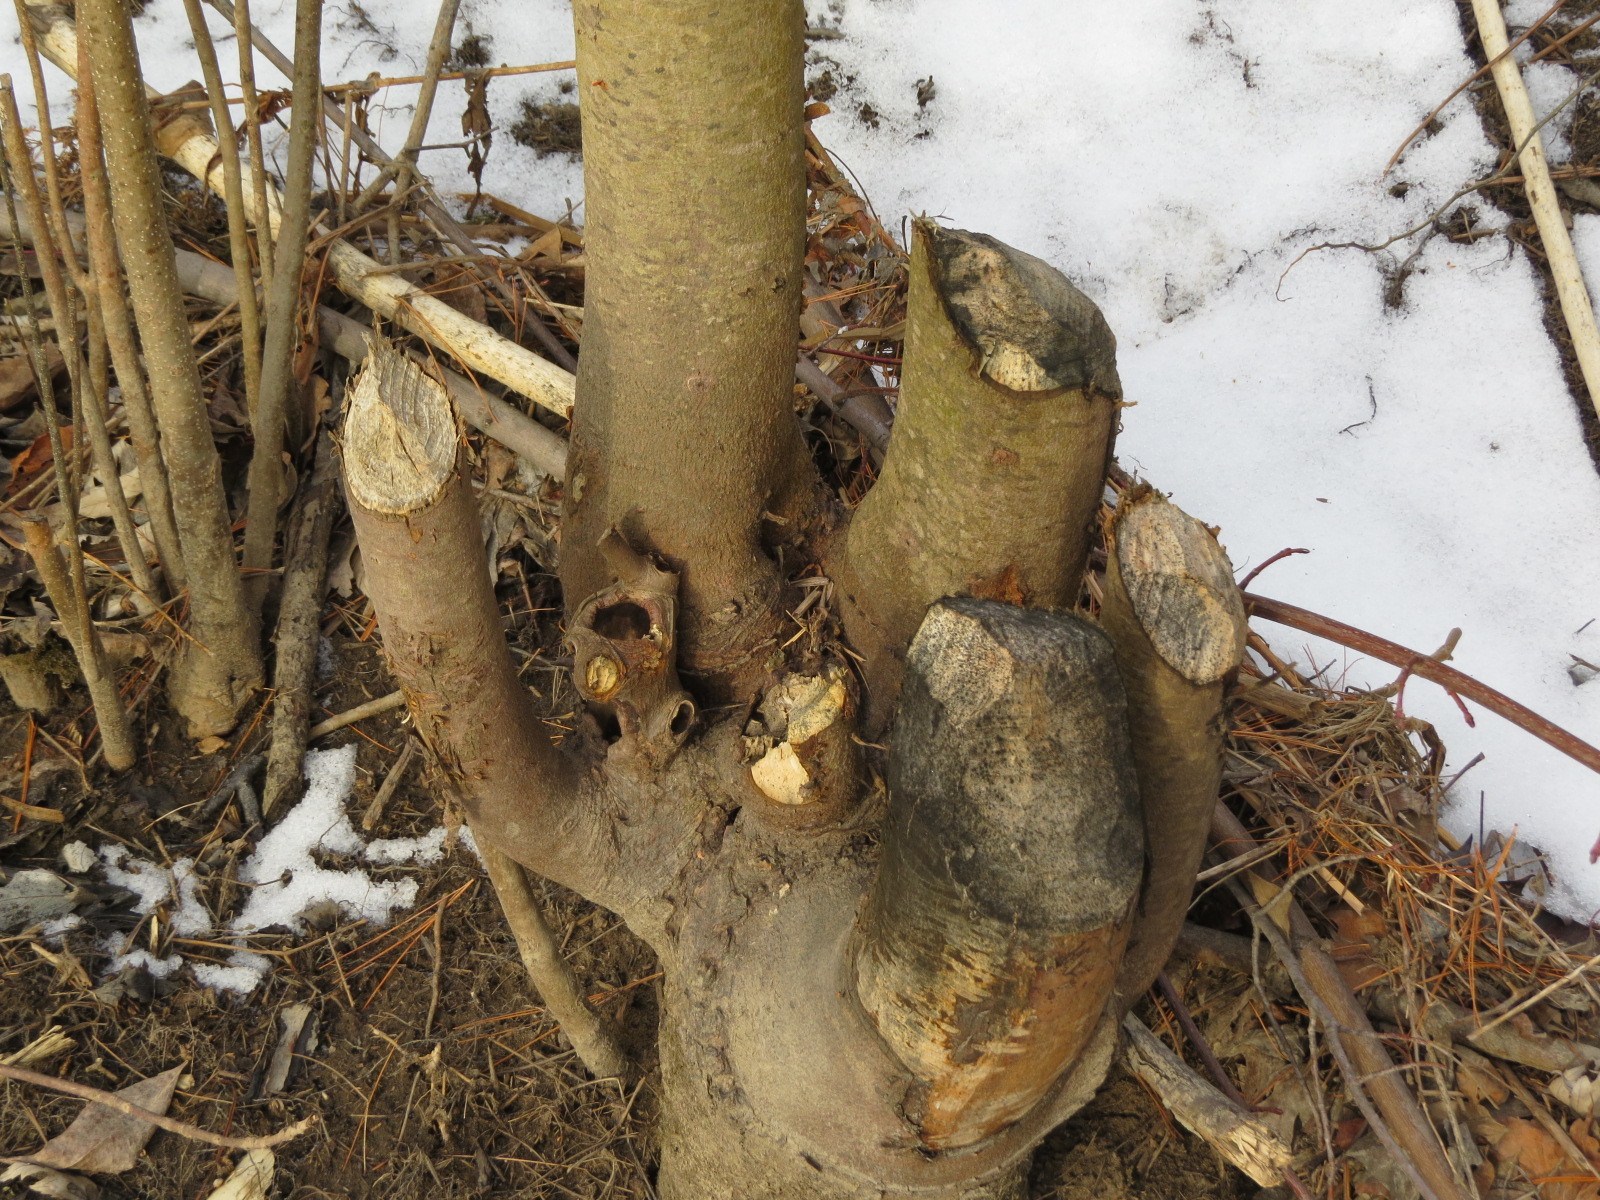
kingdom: Animalia
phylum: Chordata
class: Mammalia
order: Rodentia
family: Castoridae
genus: Castor
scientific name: Castor canadensis
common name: American beaver
